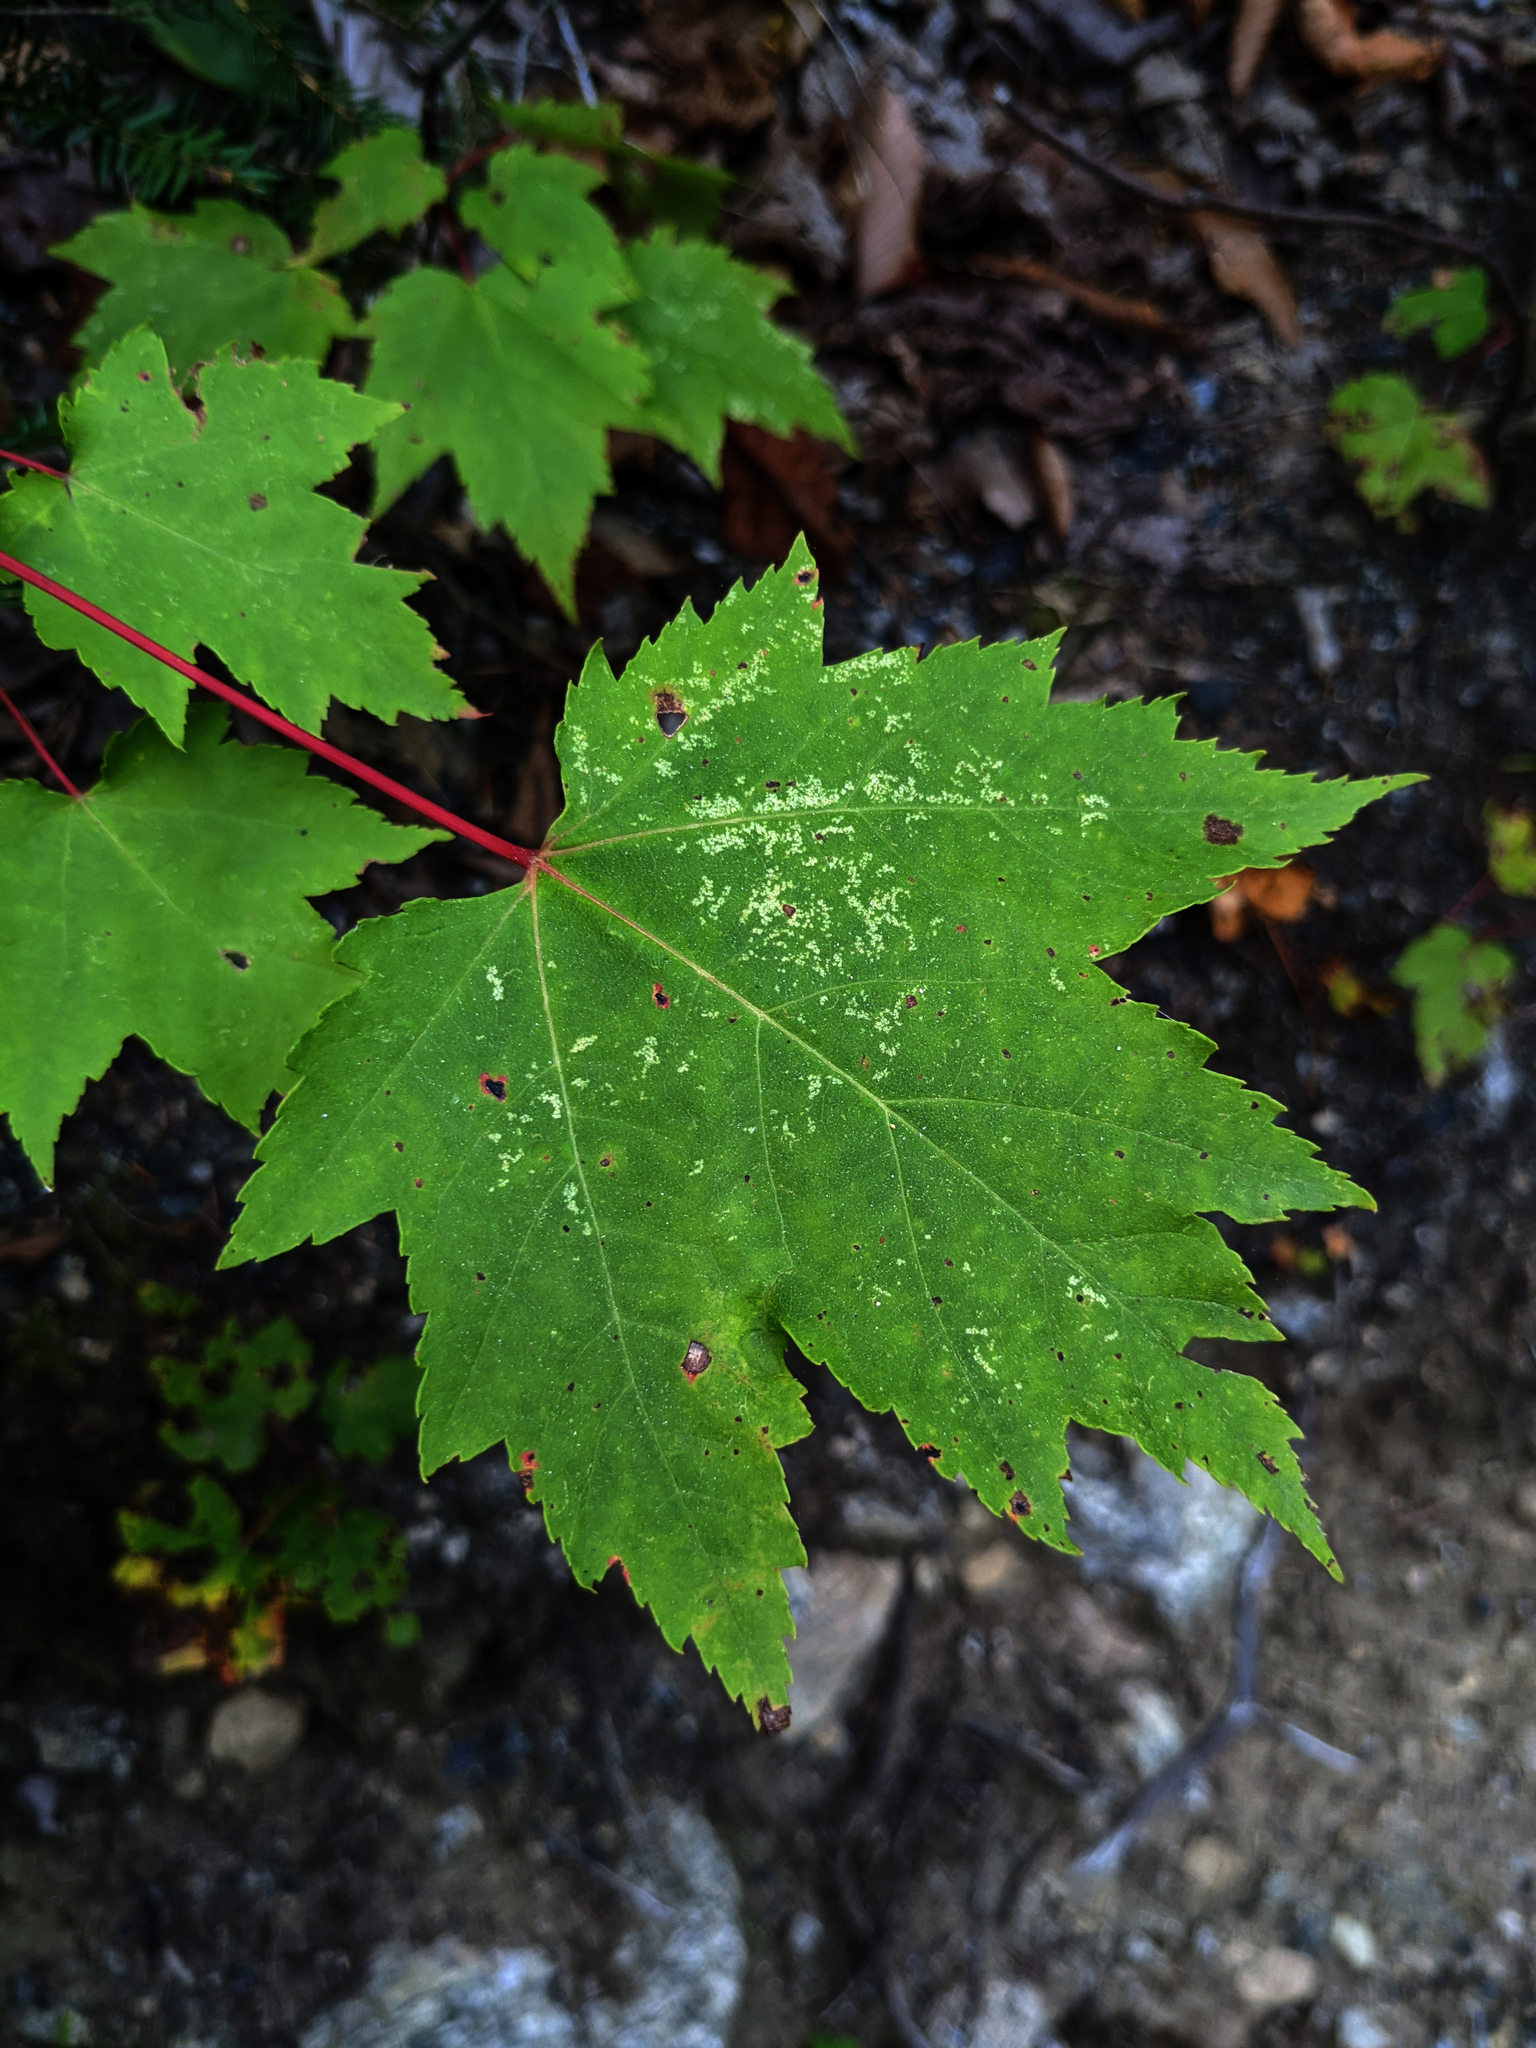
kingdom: Plantae
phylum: Tracheophyta
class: Magnoliopsida
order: Sapindales
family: Sapindaceae
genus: Acer
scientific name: Acer rubrum
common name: Red maple
